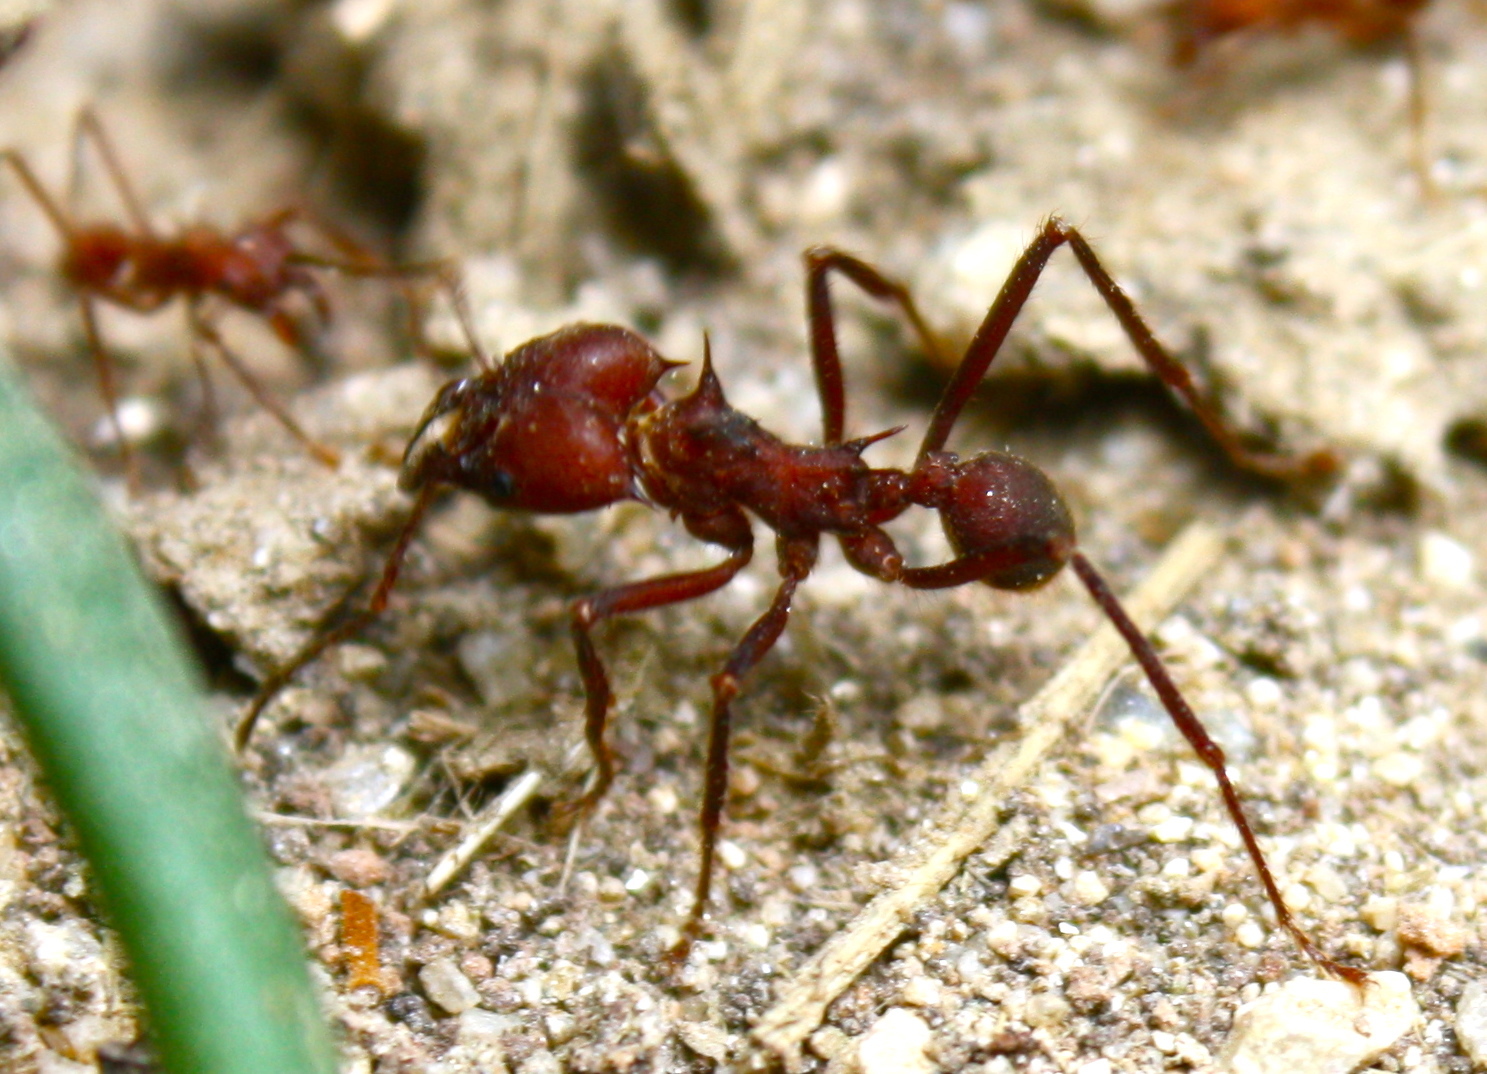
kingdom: Animalia
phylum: Arthropoda
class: Insecta
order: Hymenoptera
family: Formicidae
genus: Atta
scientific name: Atta colombica
